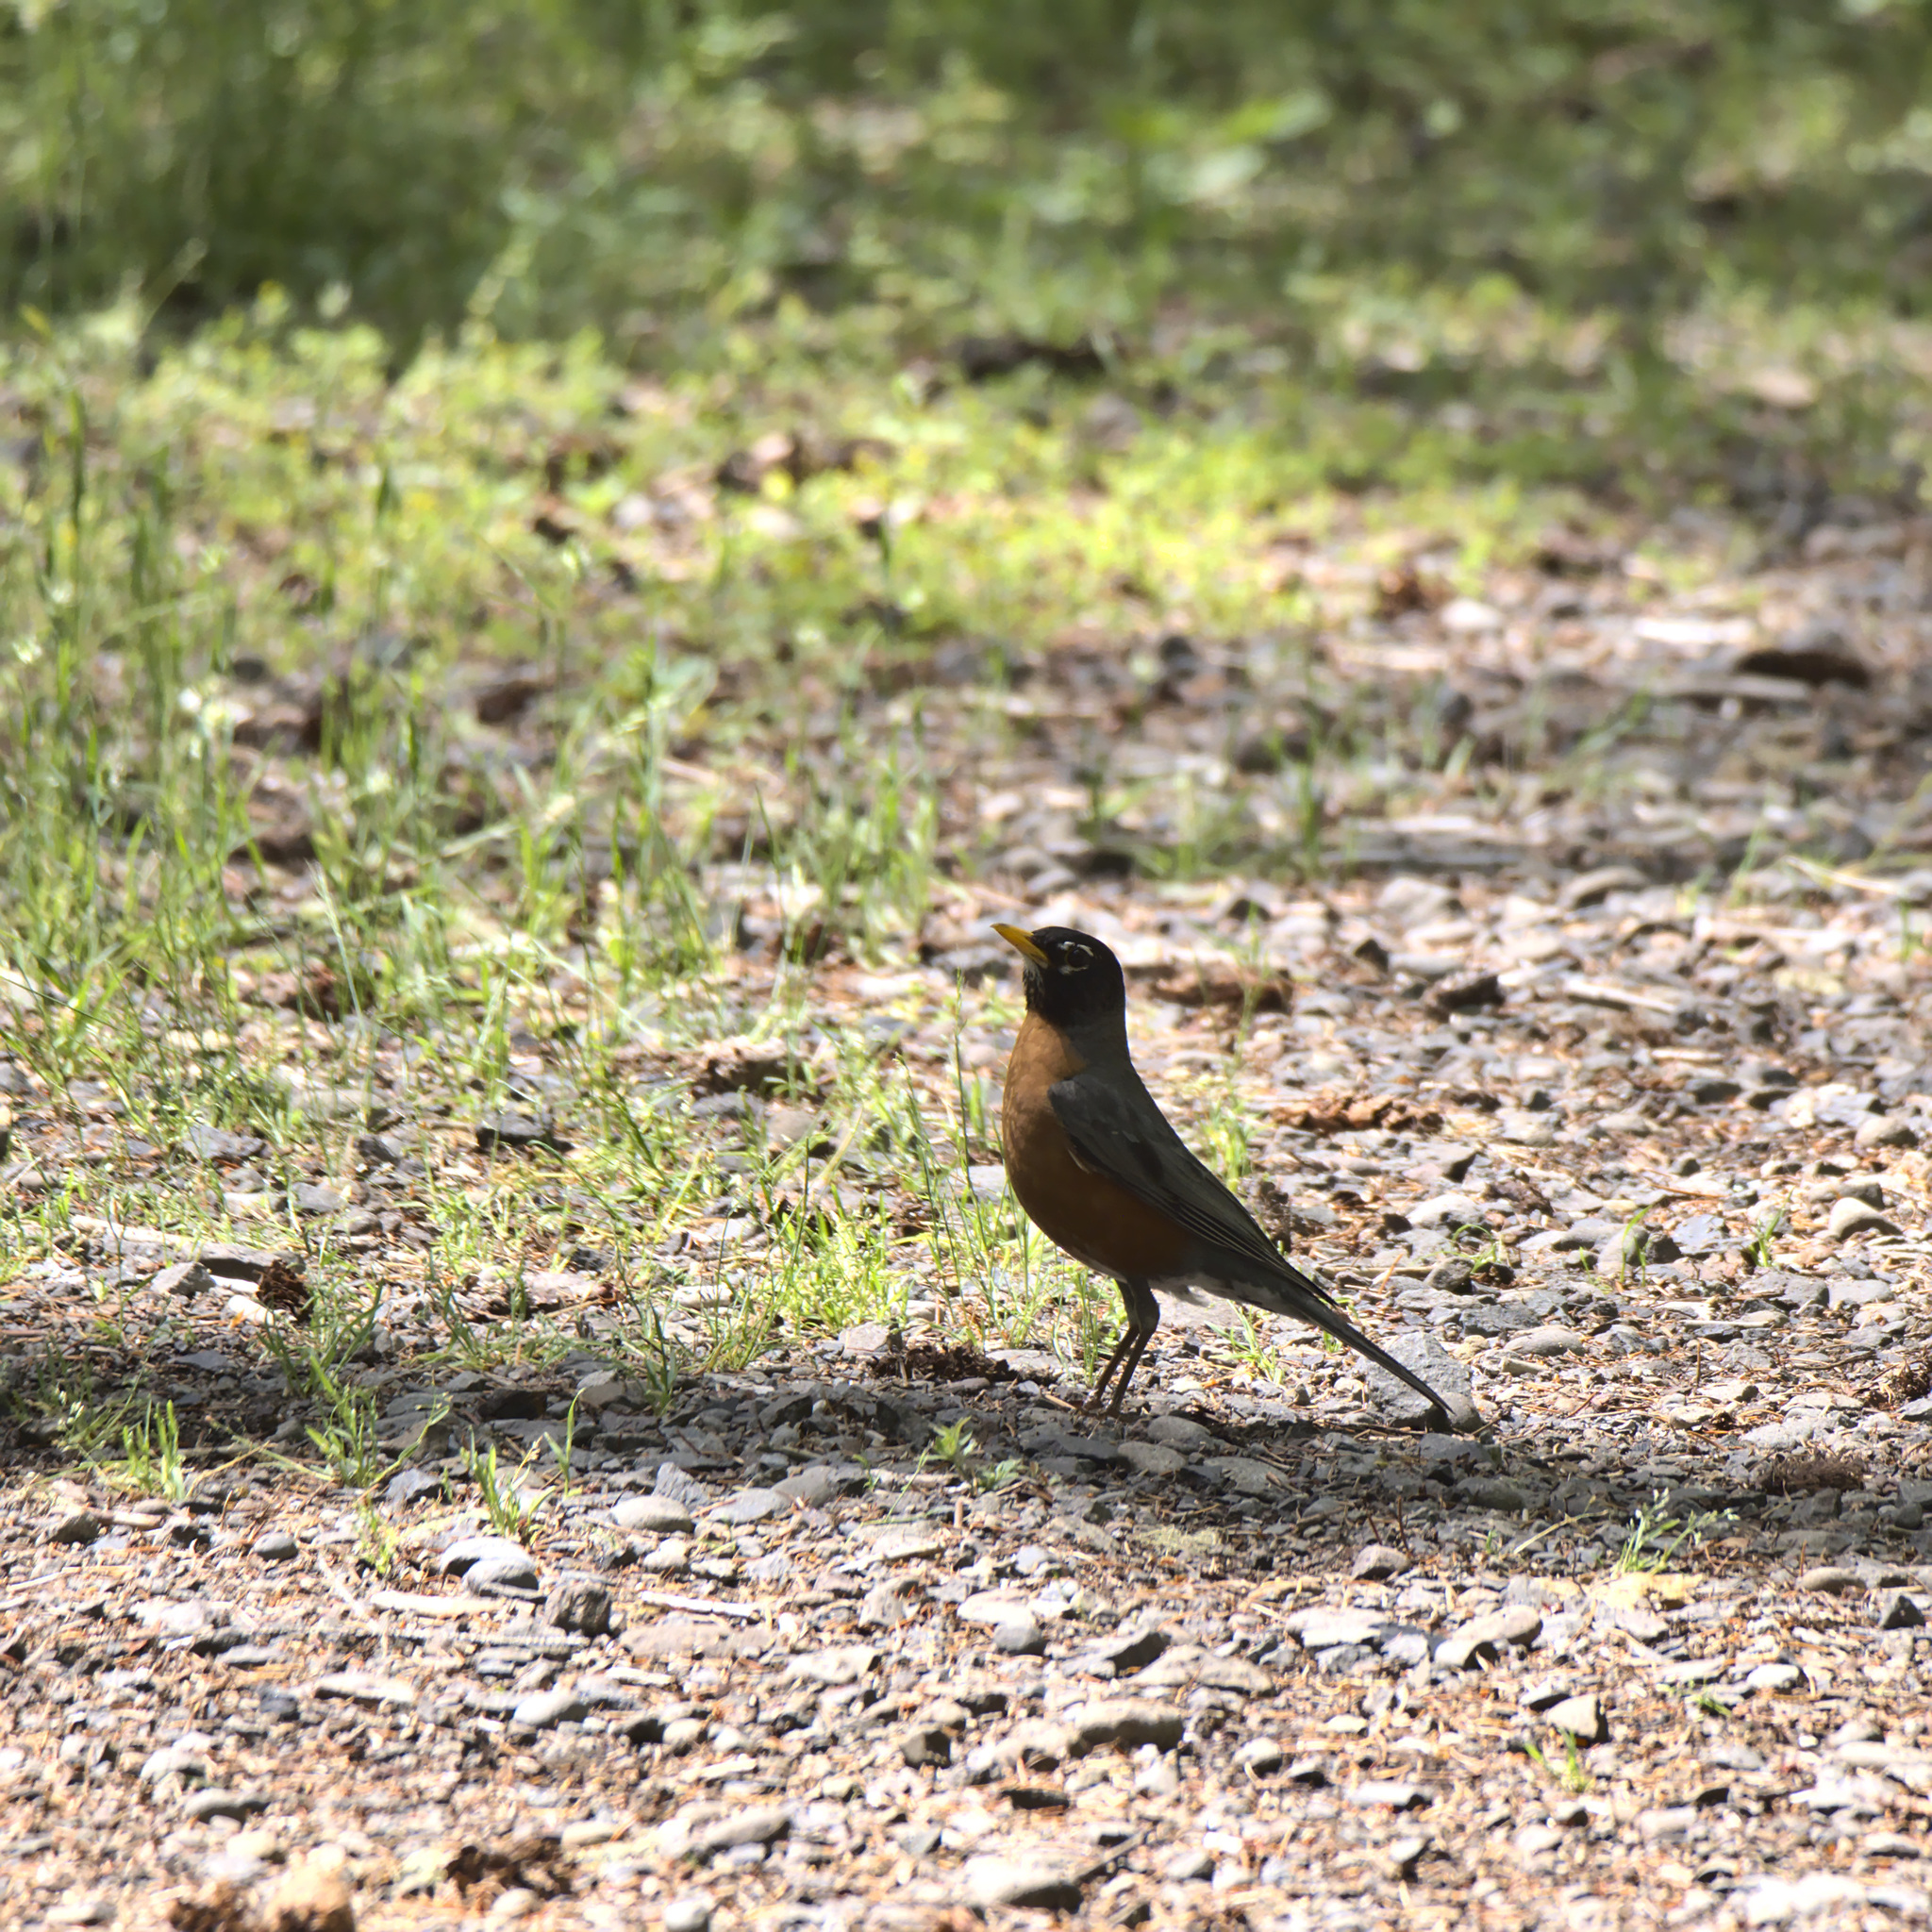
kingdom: Animalia
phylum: Chordata
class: Aves
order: Passeriformes
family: Turdidae
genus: Turdus
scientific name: Turdus migratorius
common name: American robin
